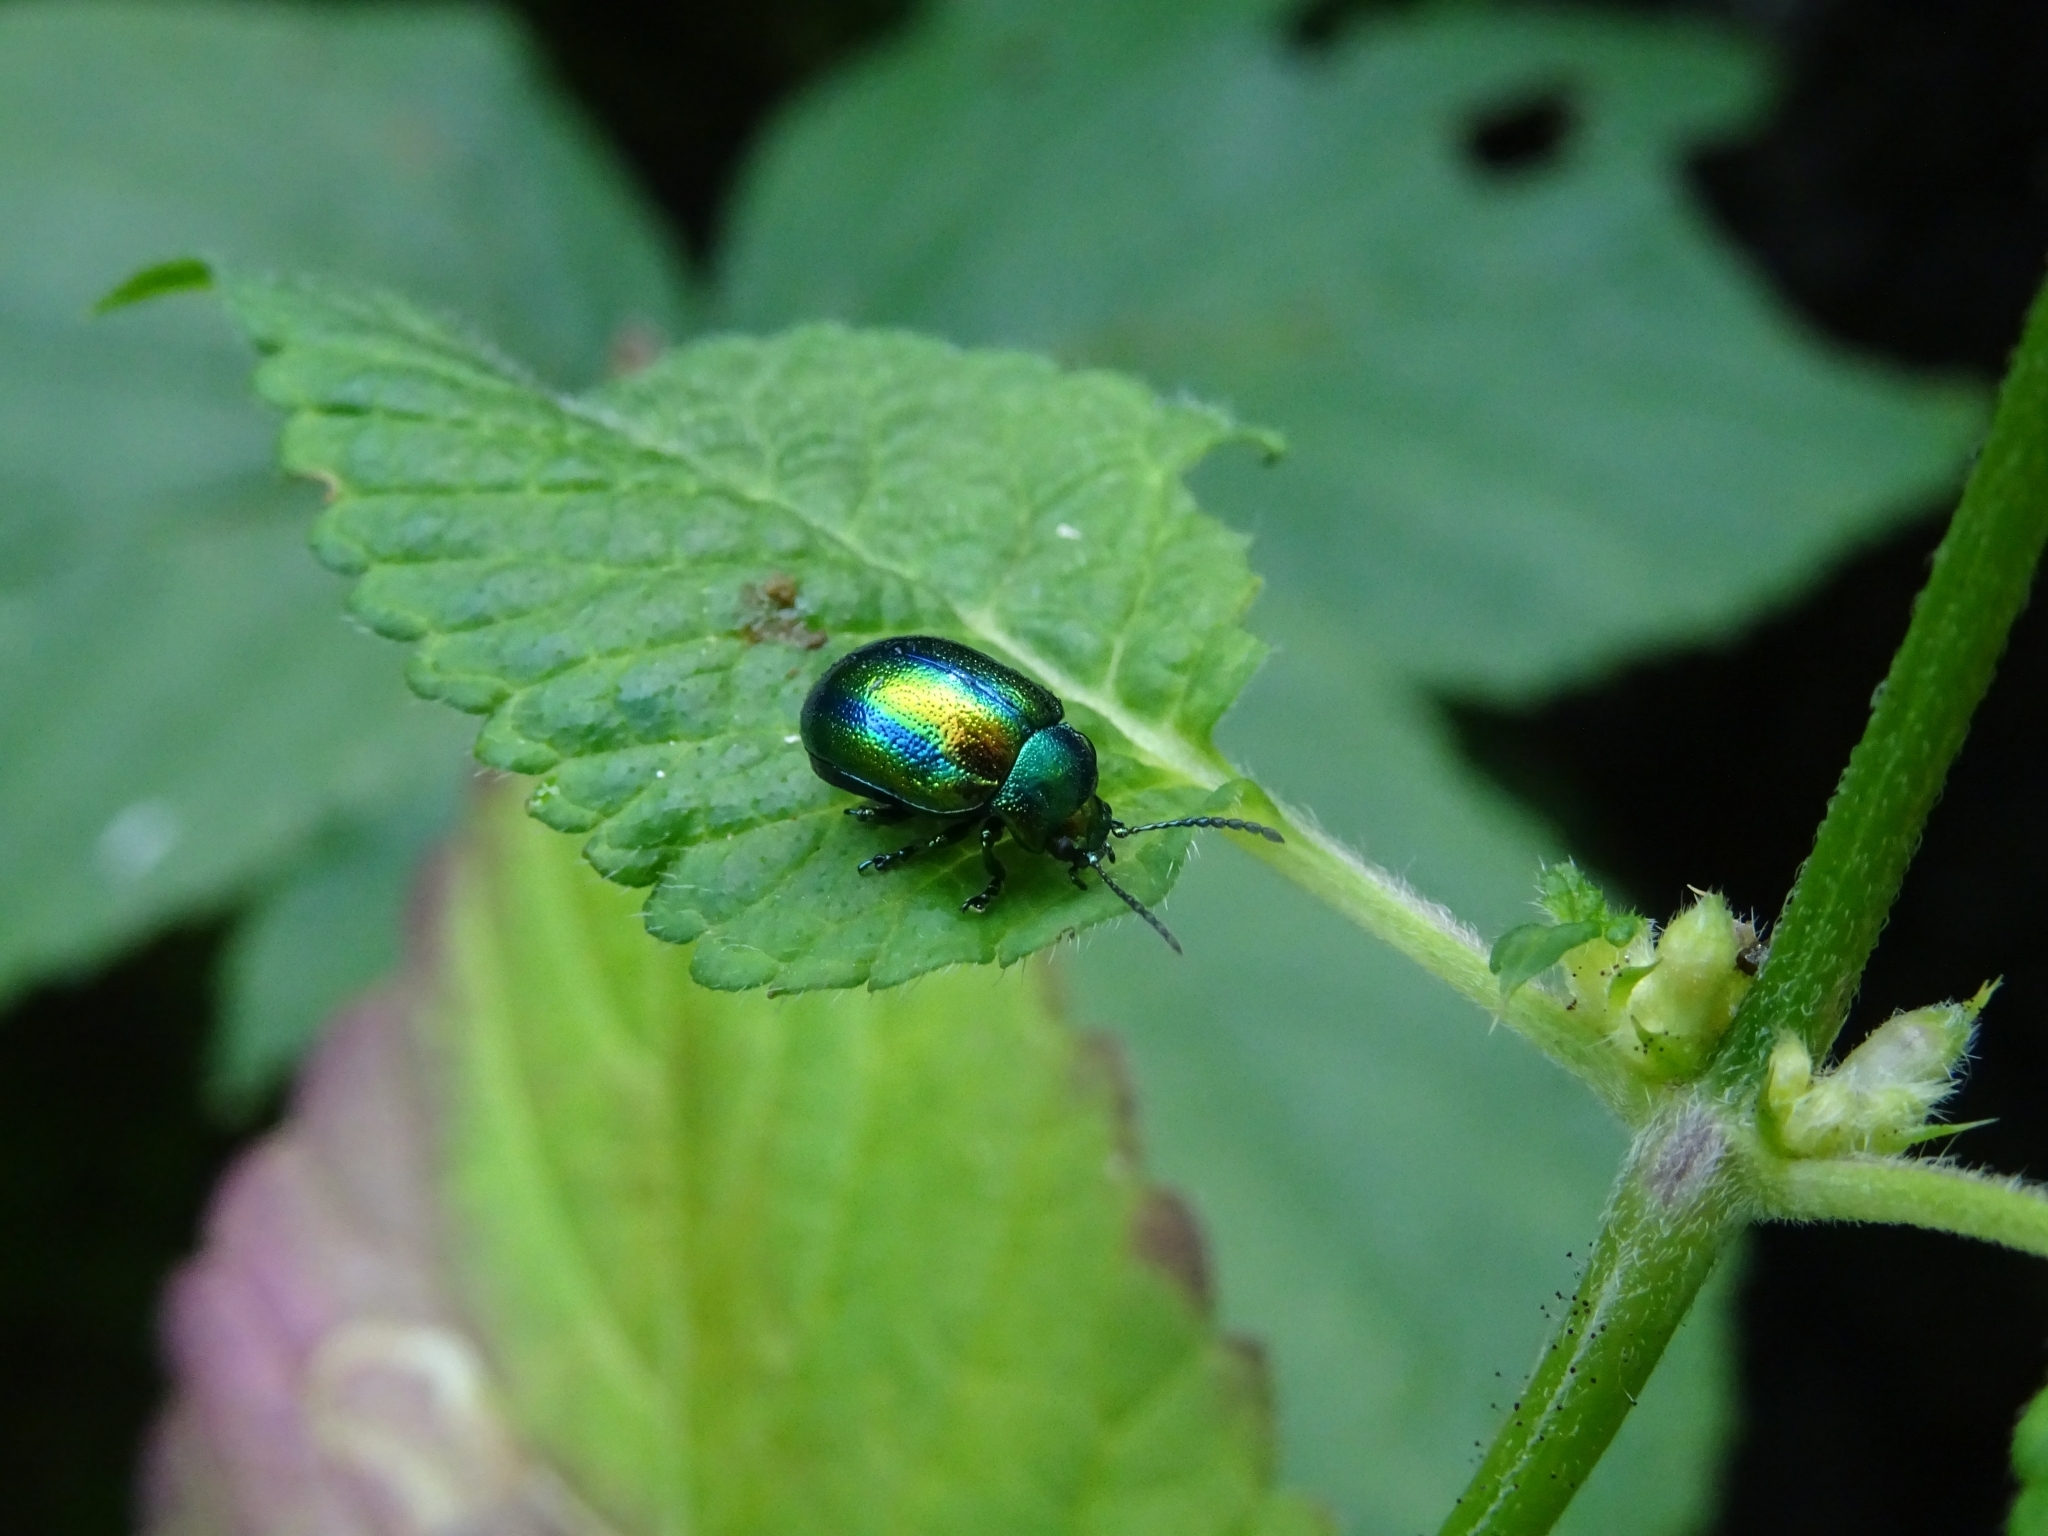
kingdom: Animalia
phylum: Arthropoda
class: Insecta
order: Coleoptera
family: Chrysomelidae
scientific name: Chrysomelidae
